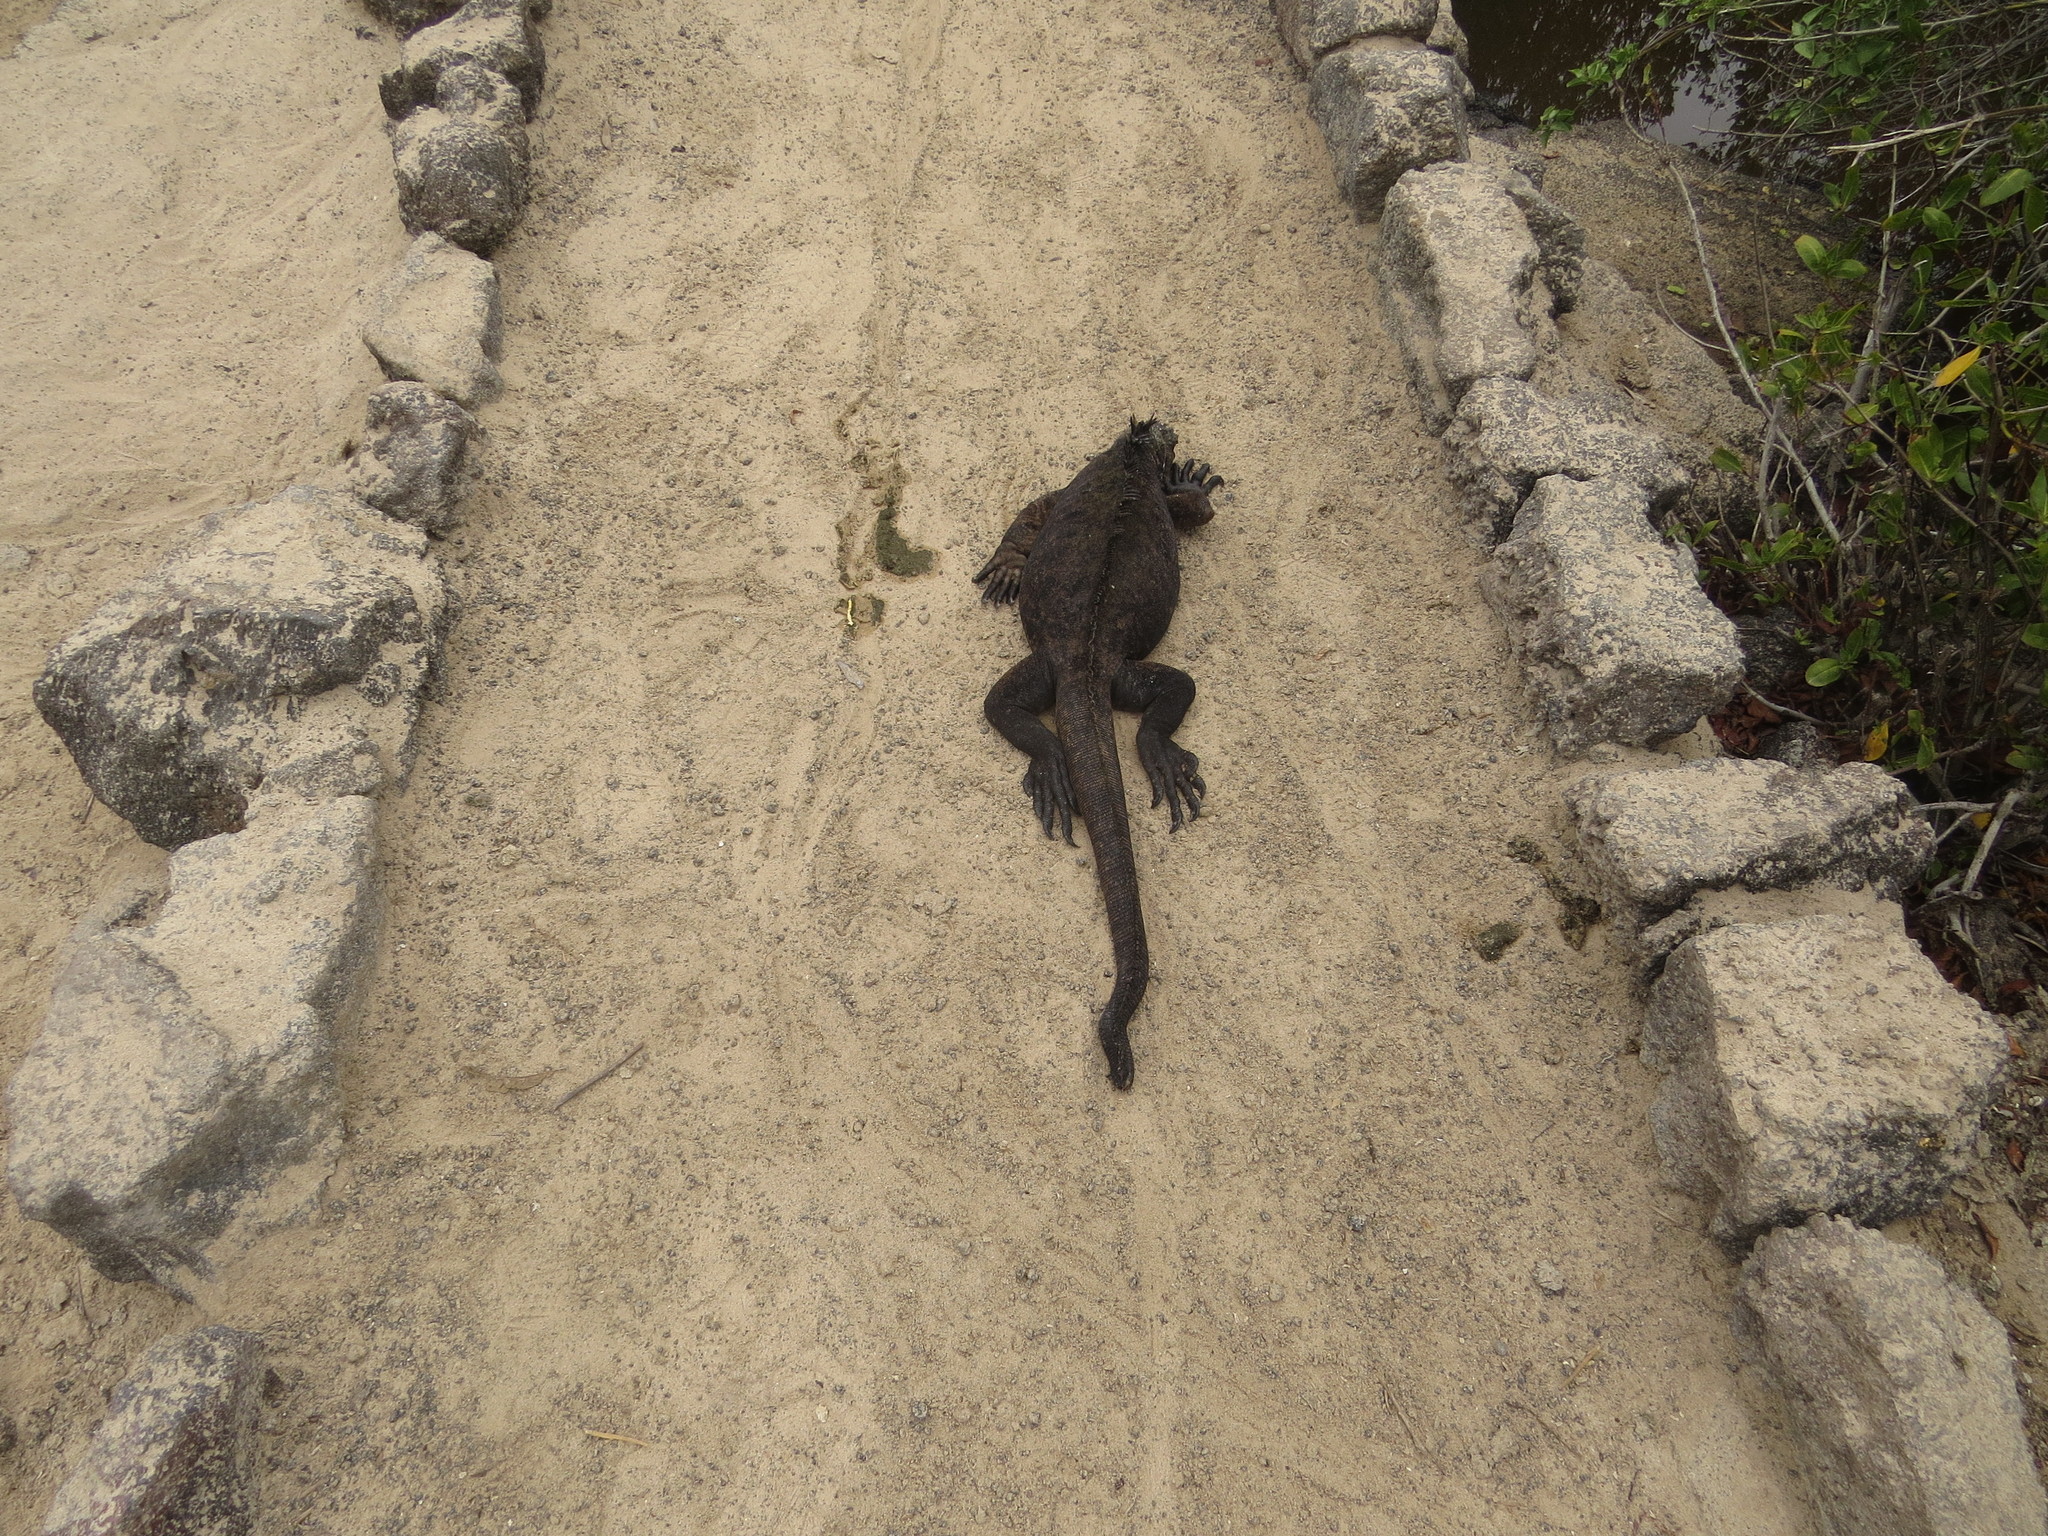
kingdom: Animalia
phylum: Chordata
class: Squamata
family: Iguanidae
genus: Amblyrhynchus
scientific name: Amblyrhynchus cristatus
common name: Marine iguana
